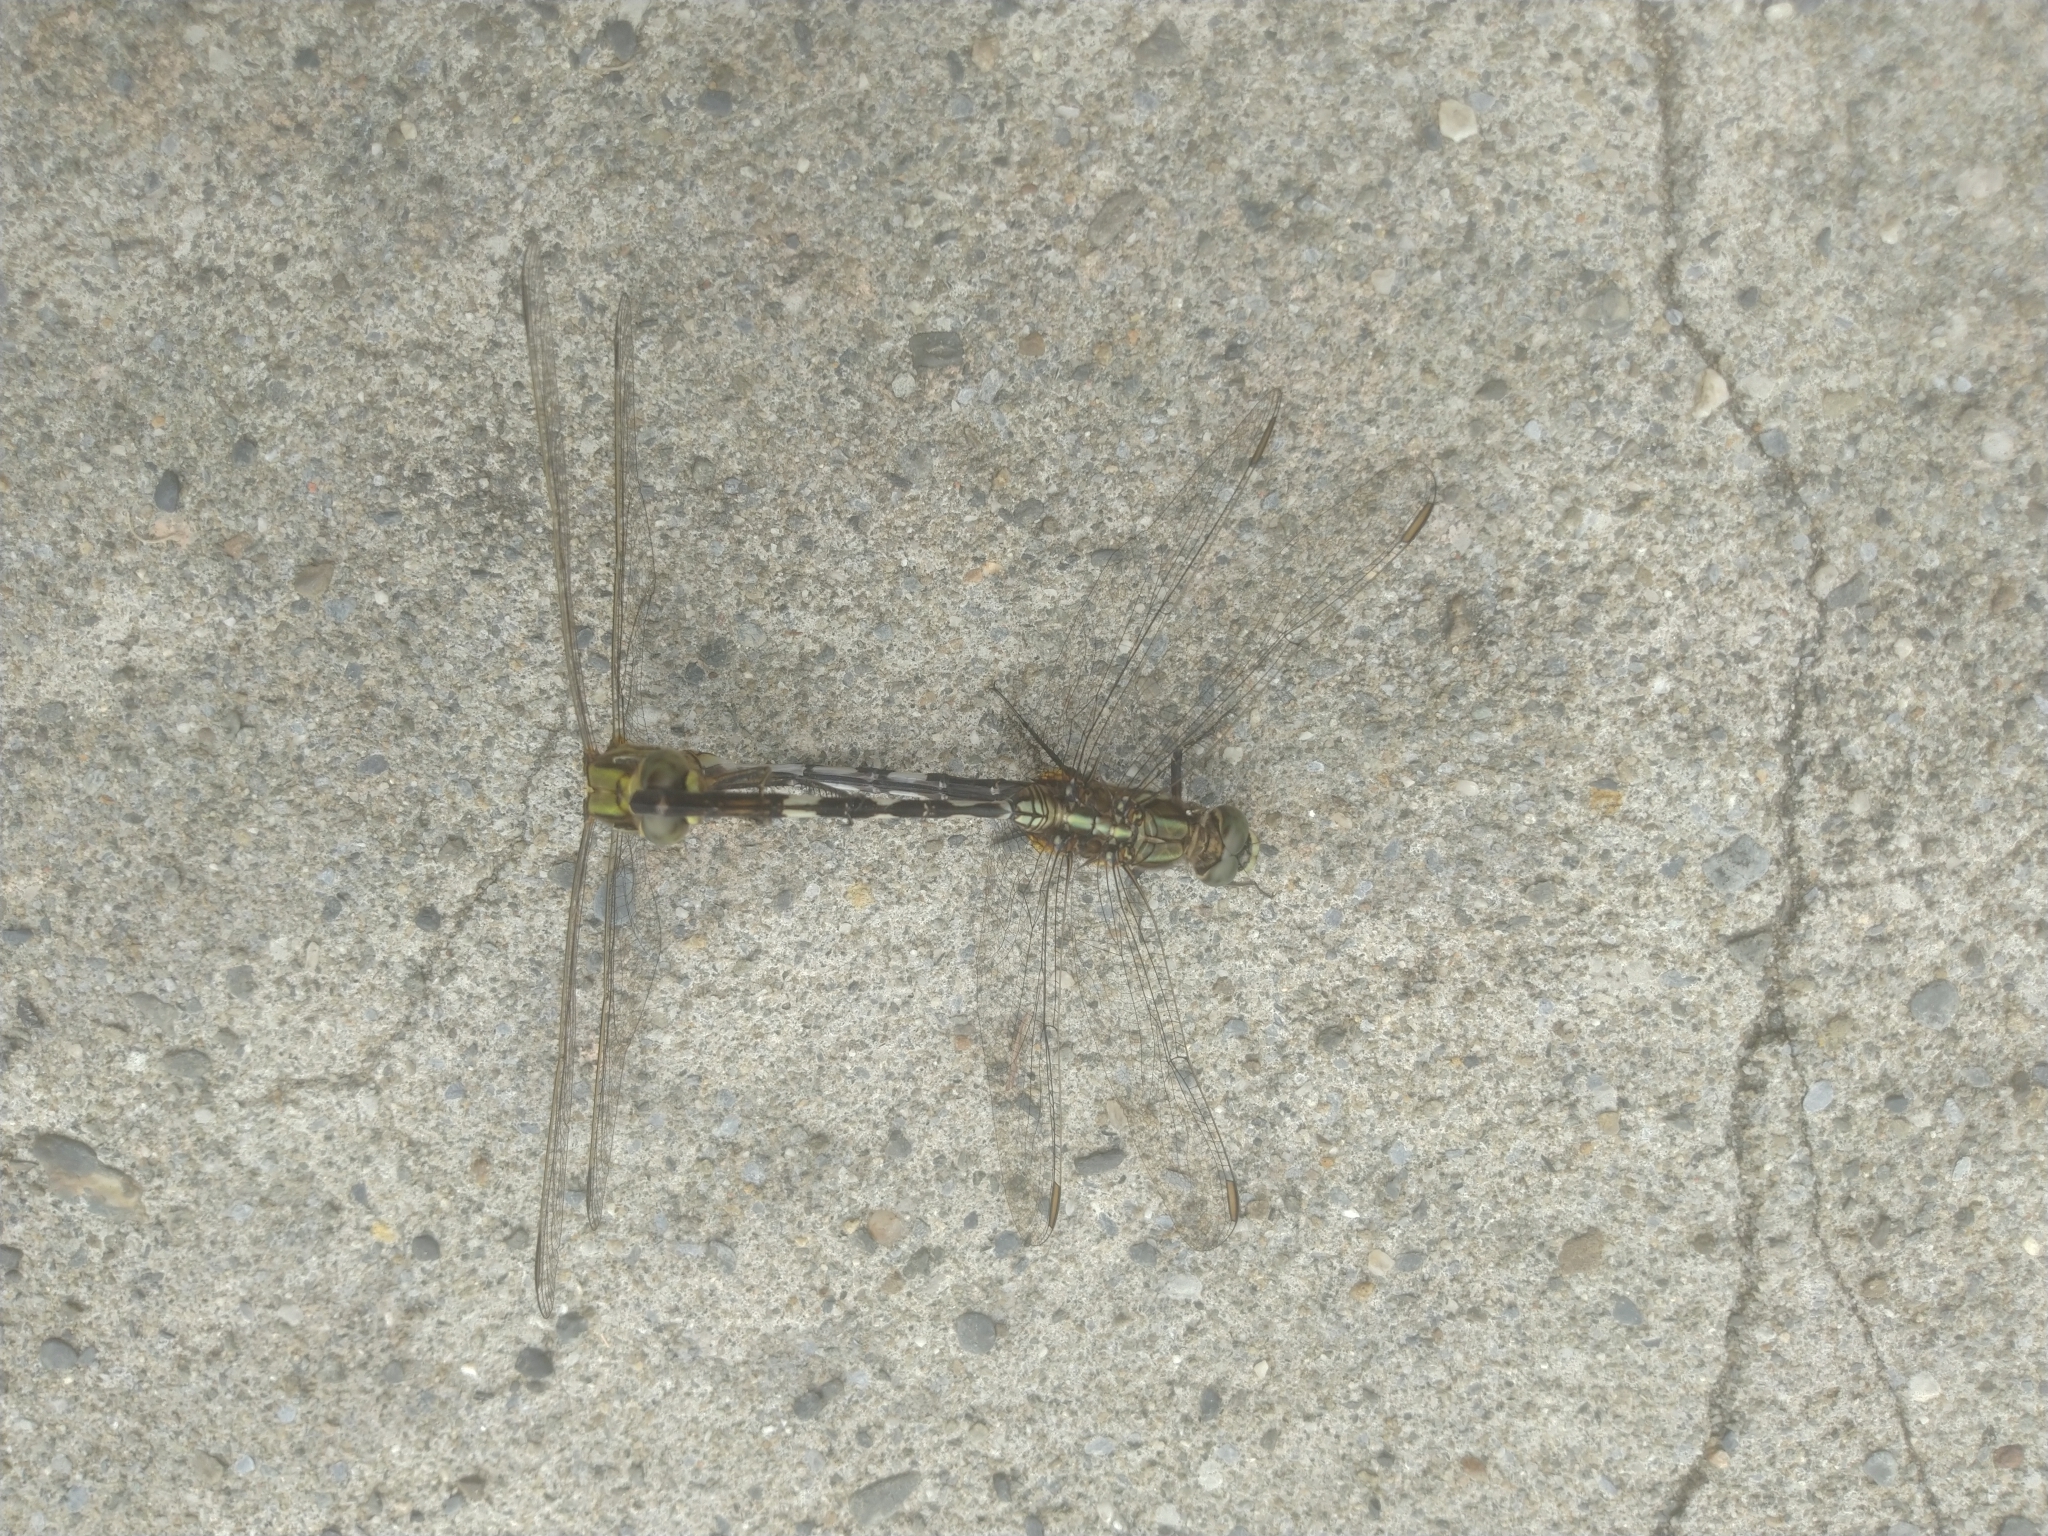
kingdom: Animalia
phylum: Arthropoda
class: Insecta
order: Odonata
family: Libellulidae
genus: Orthetrum
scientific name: Orthetrum sabina
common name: Slender skimmer
